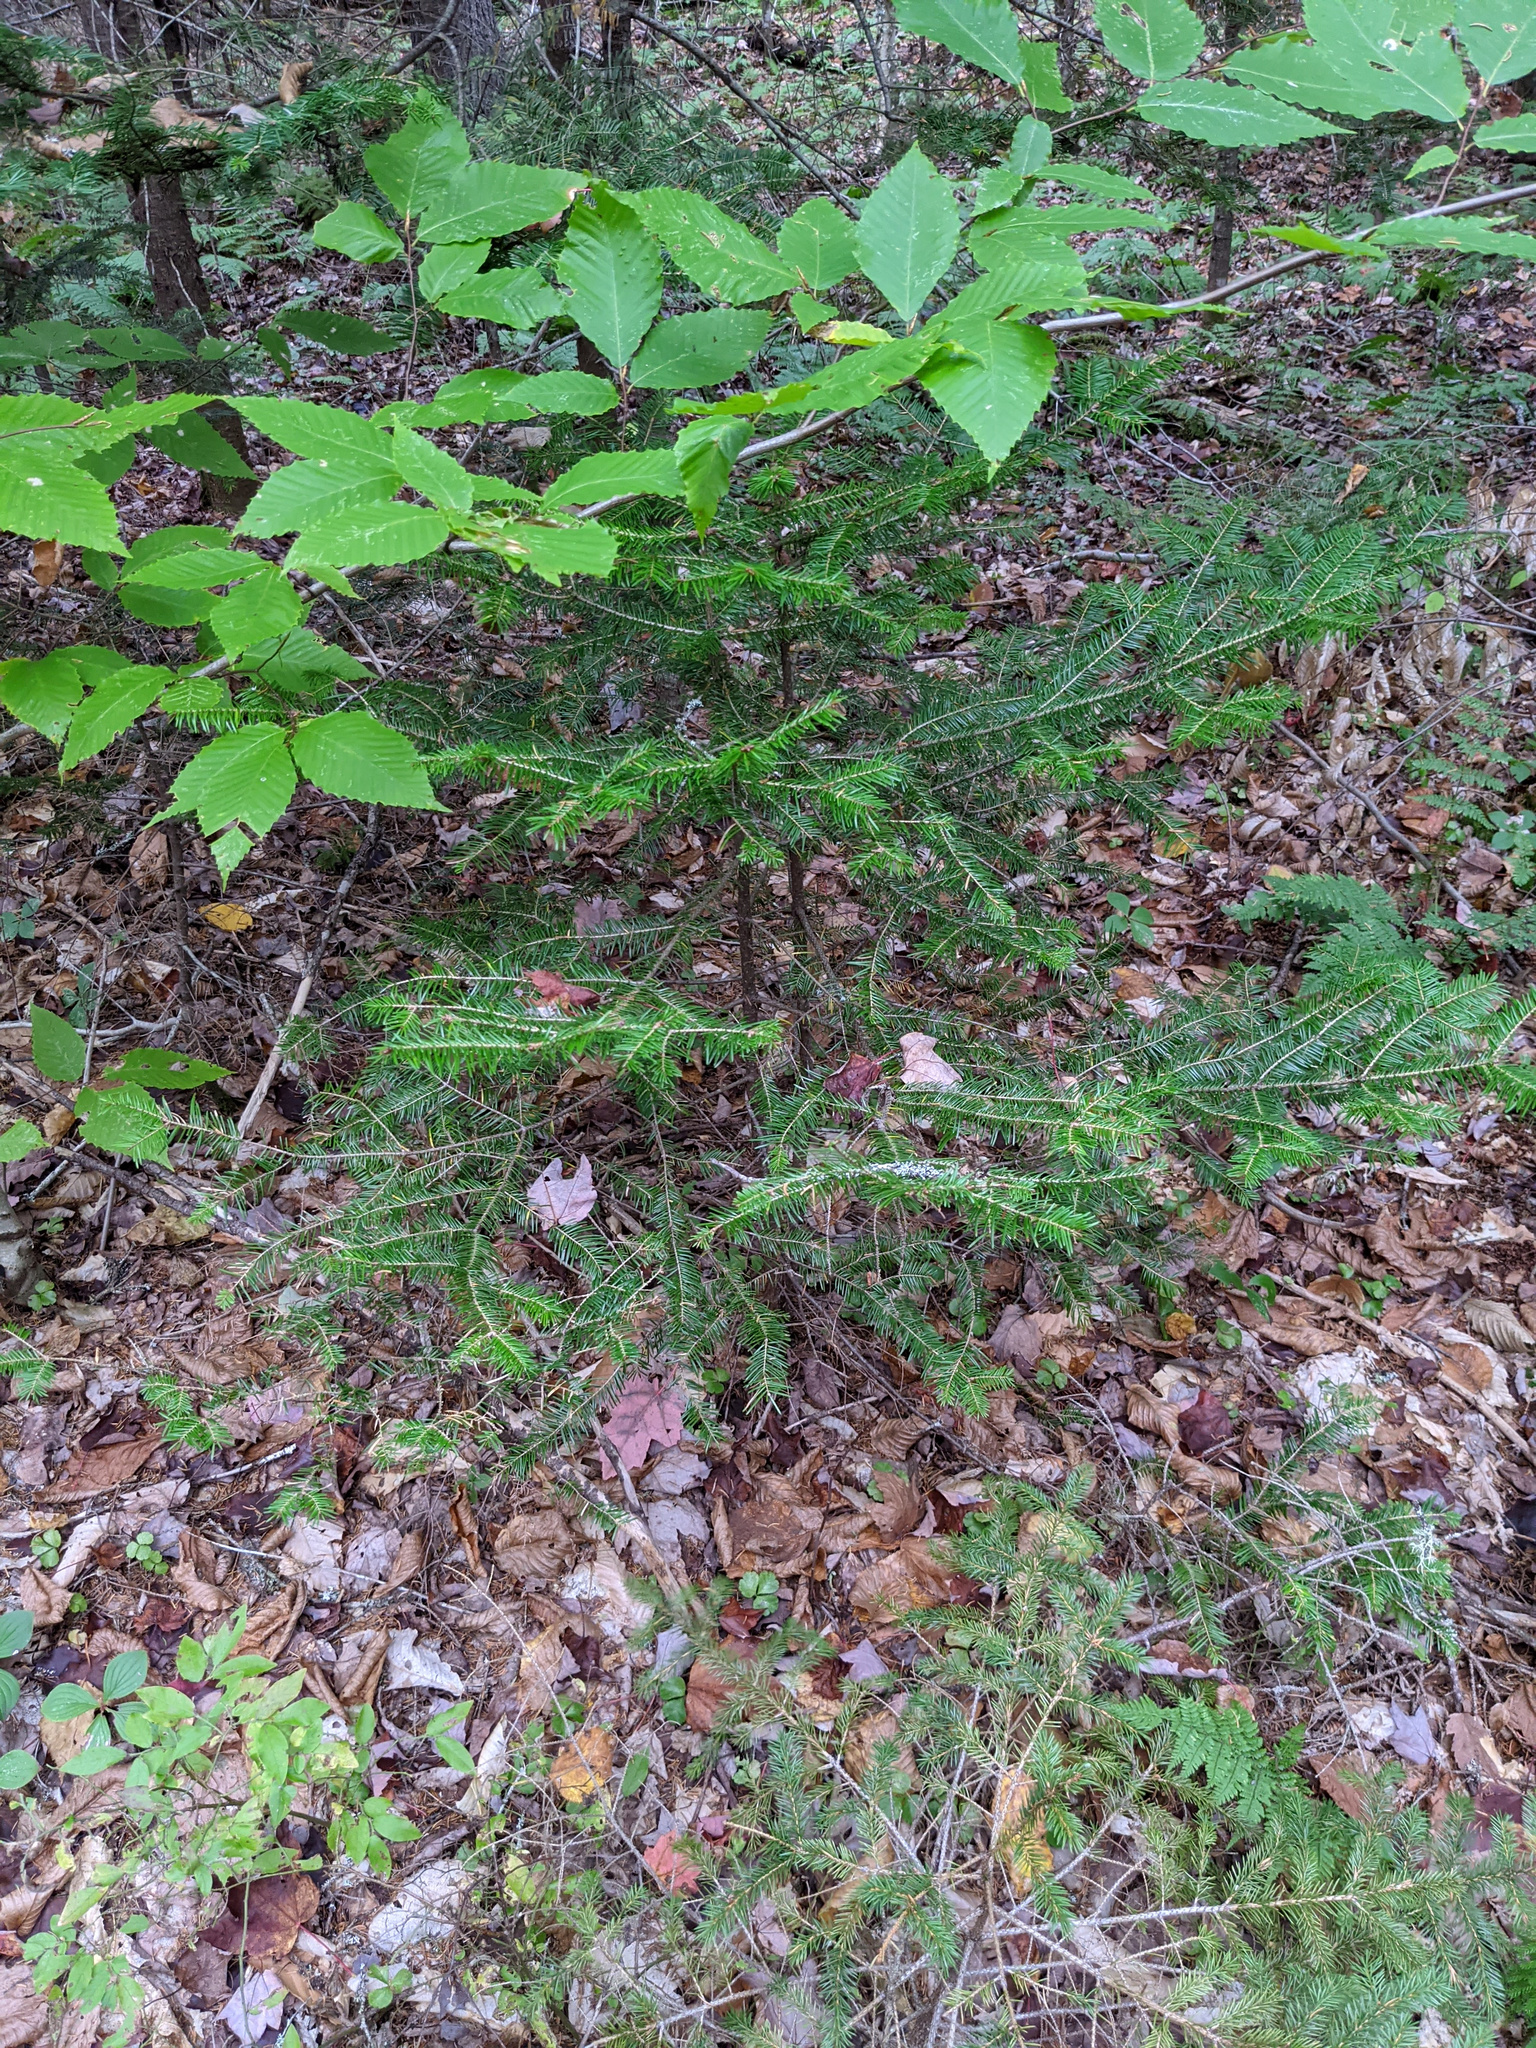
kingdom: Plantae
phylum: Tracheophyta
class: Pinopsida
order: Pinales
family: Pinaceae
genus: Abies
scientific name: Abies balsamea
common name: Balsam fir
